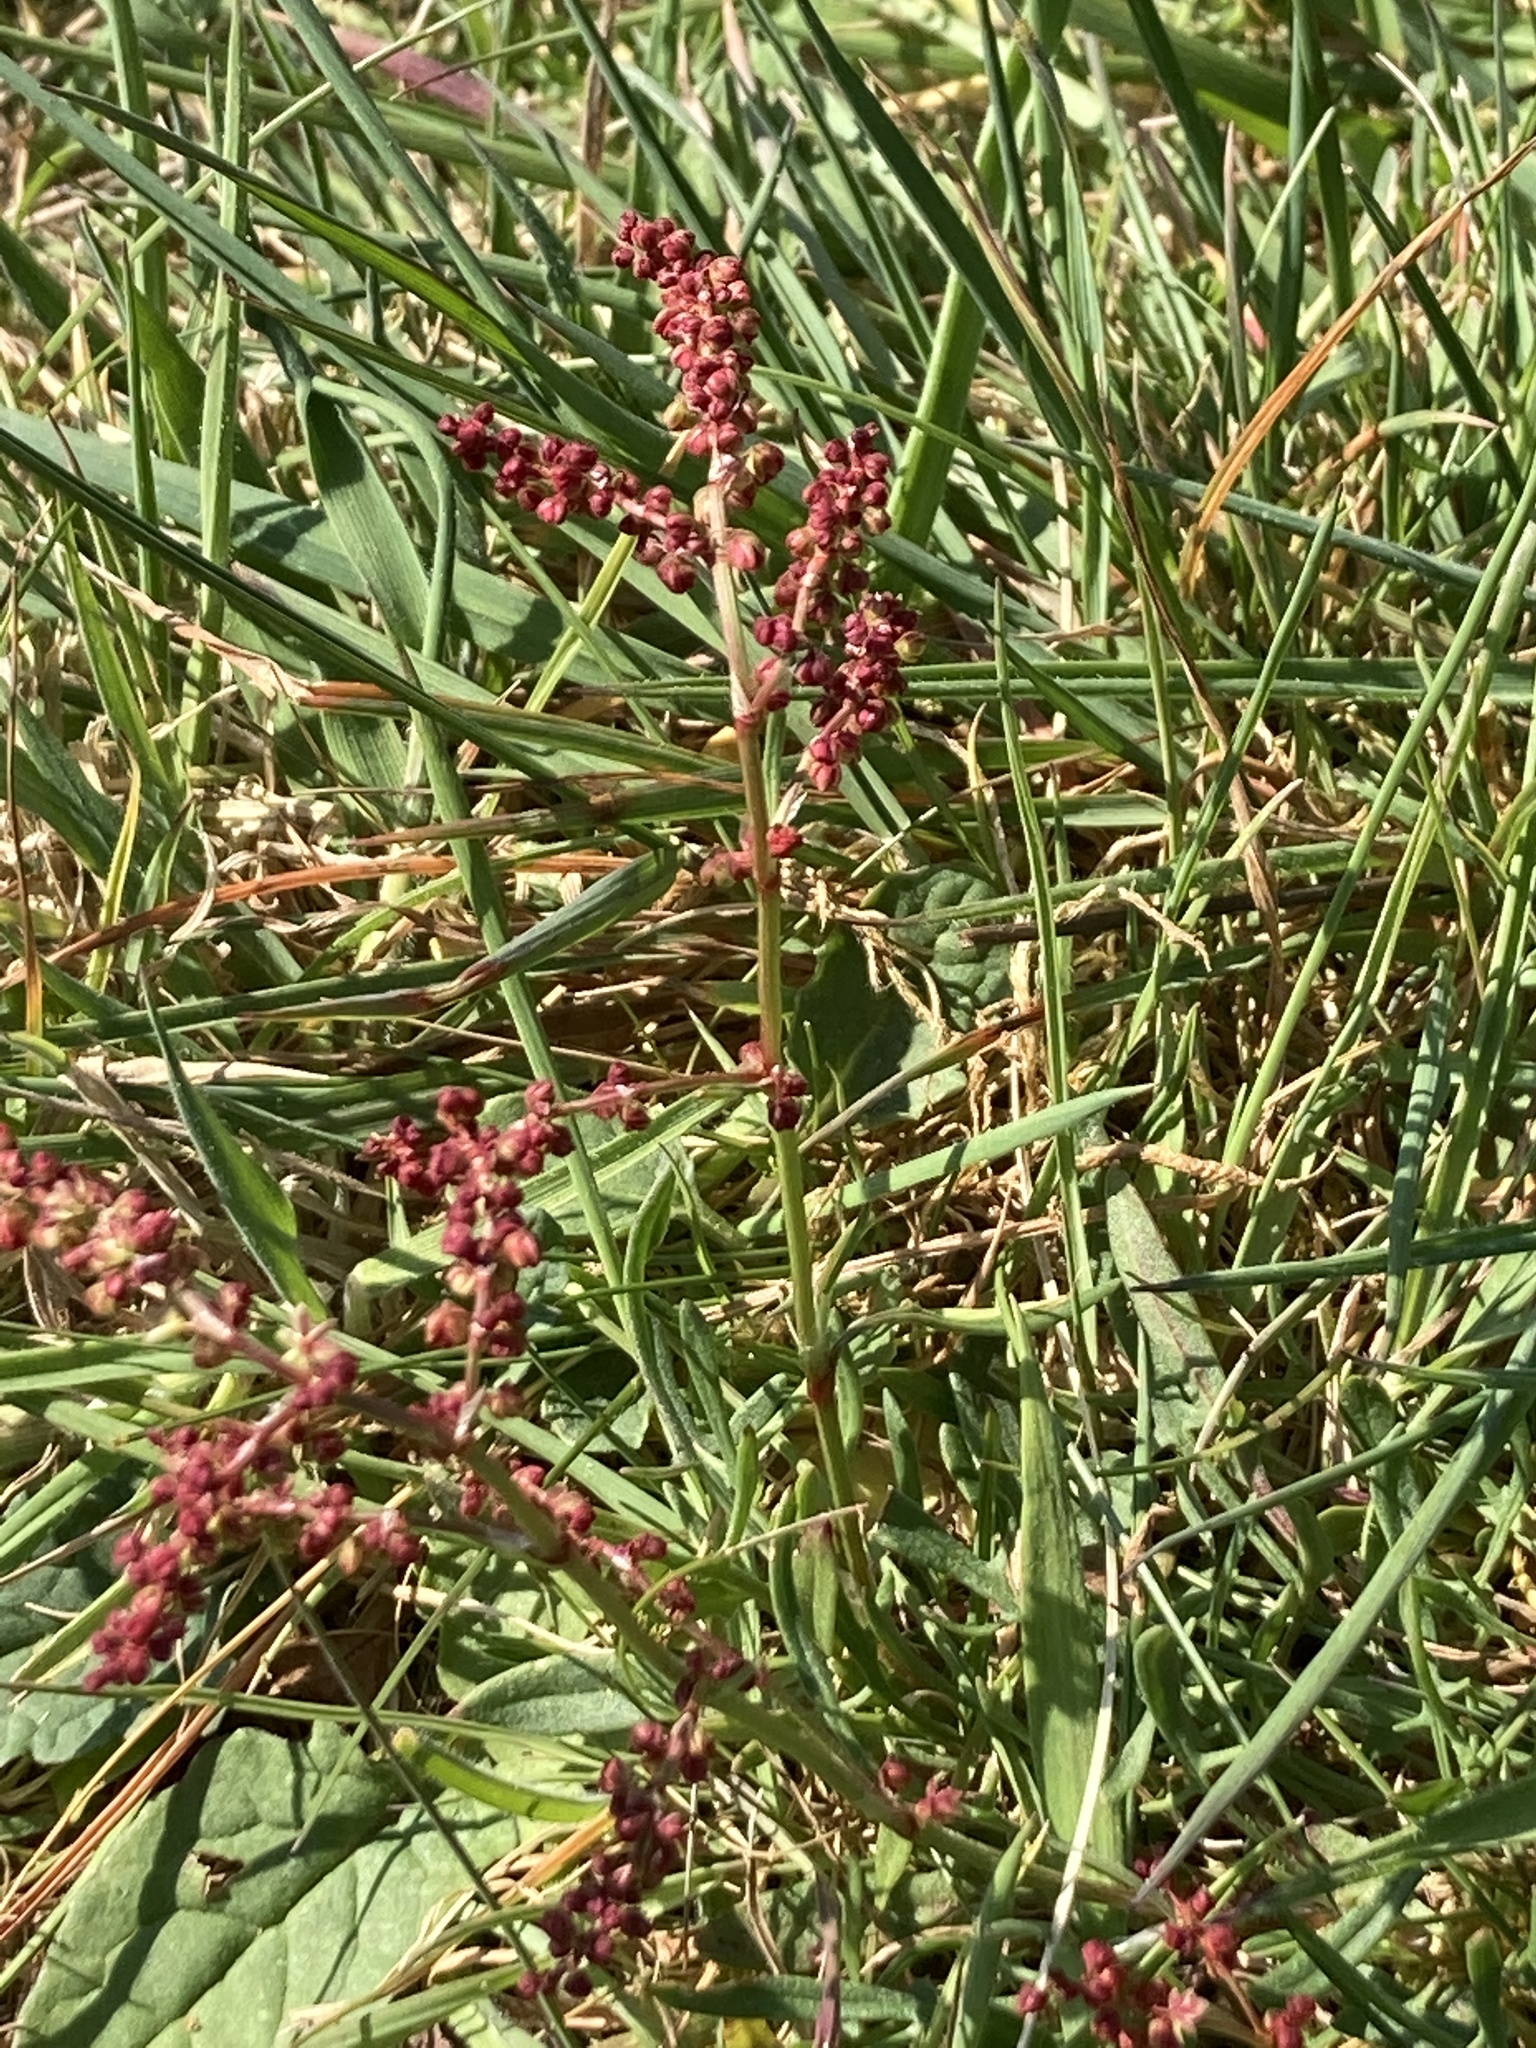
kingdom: Plantae
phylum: Tracheophyta
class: Magnoliopsida
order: Caryophyllales
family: Polygonaceae
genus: Rumex
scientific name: Rumex acetosella
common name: Common sheep sorrel
